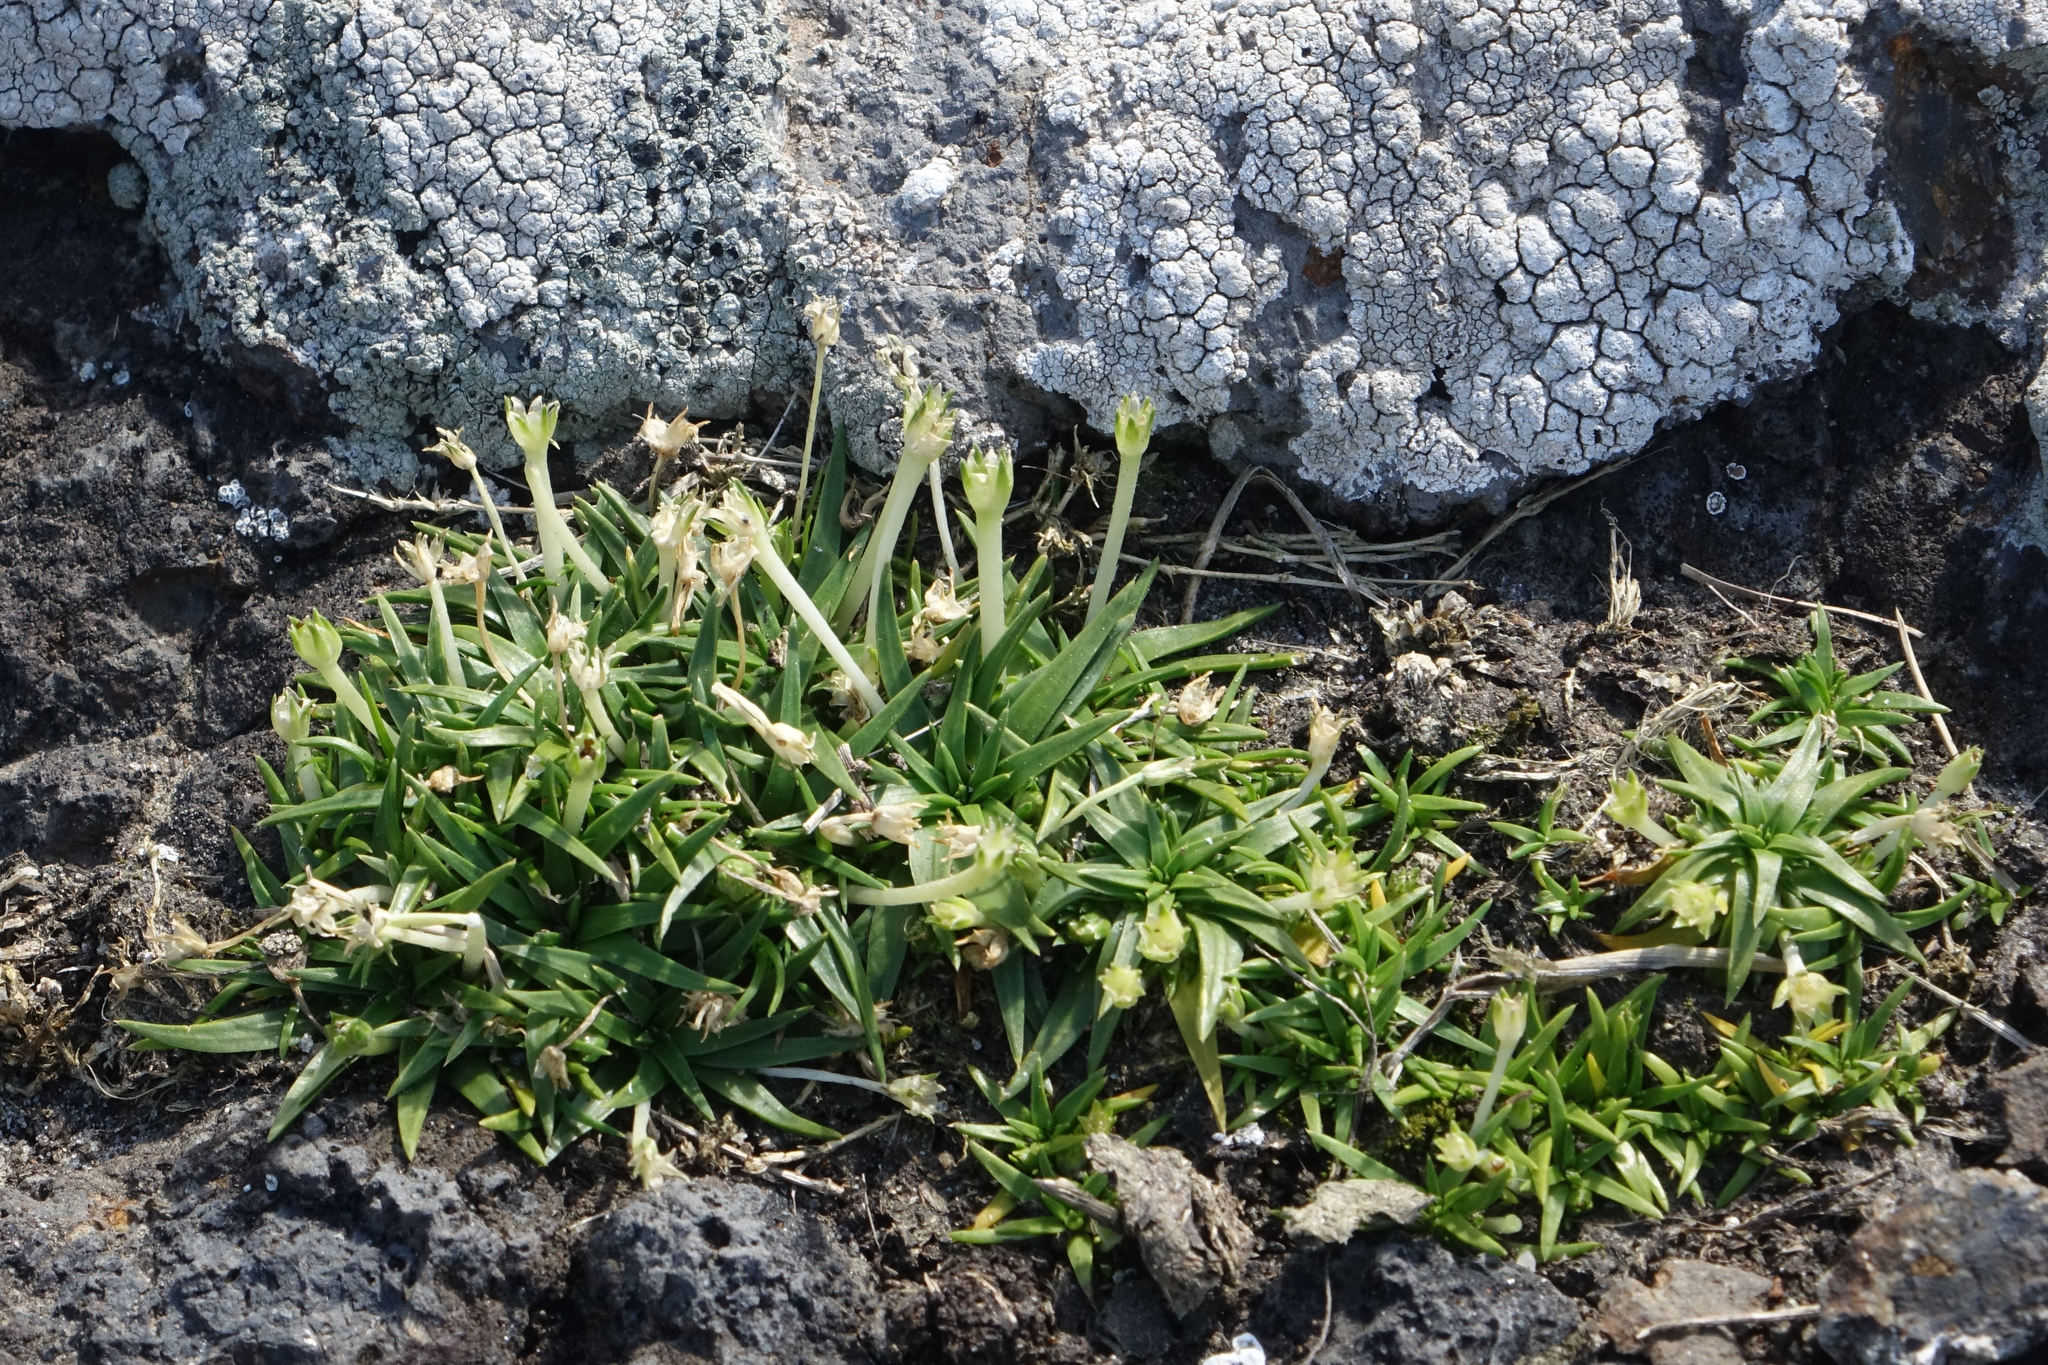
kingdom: Plantae
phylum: Tracheophyta
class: Magnoliopsida
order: Caryophyllales
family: Caryophyllaceae
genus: Colobanthus
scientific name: Colobanthus muelleri
